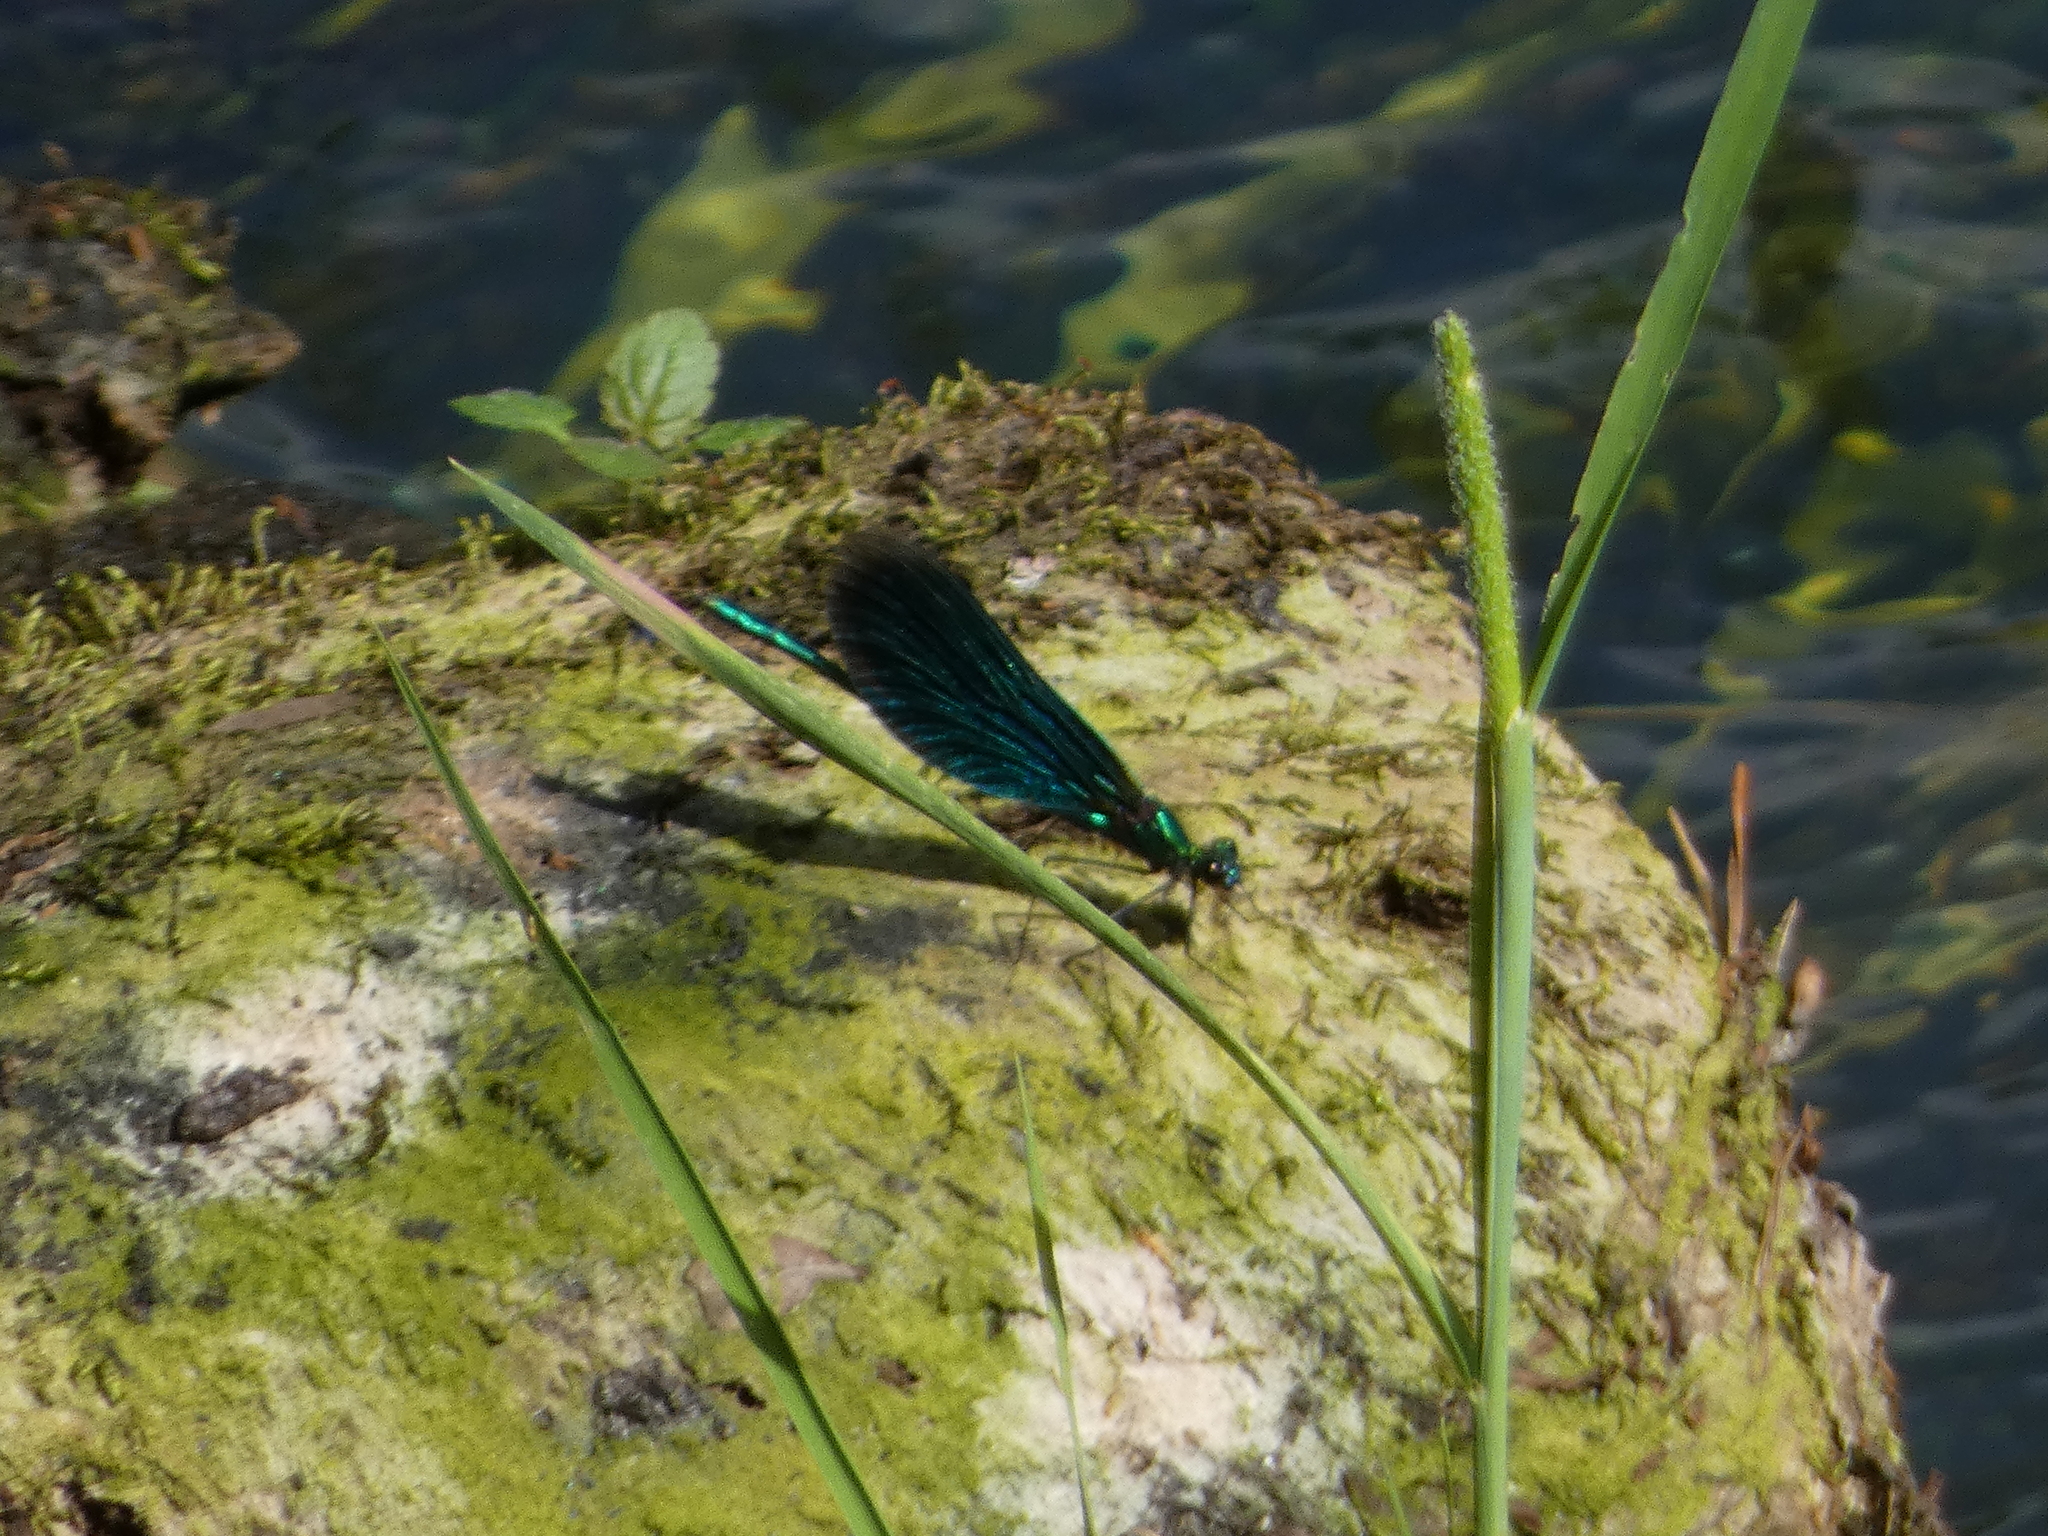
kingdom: Animalia
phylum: Arthropoda
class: Insecta
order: Odonata
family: Calopterygidae
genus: Calopteryx
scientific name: Calopteryx virgo
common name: Beautiful demoiselle
